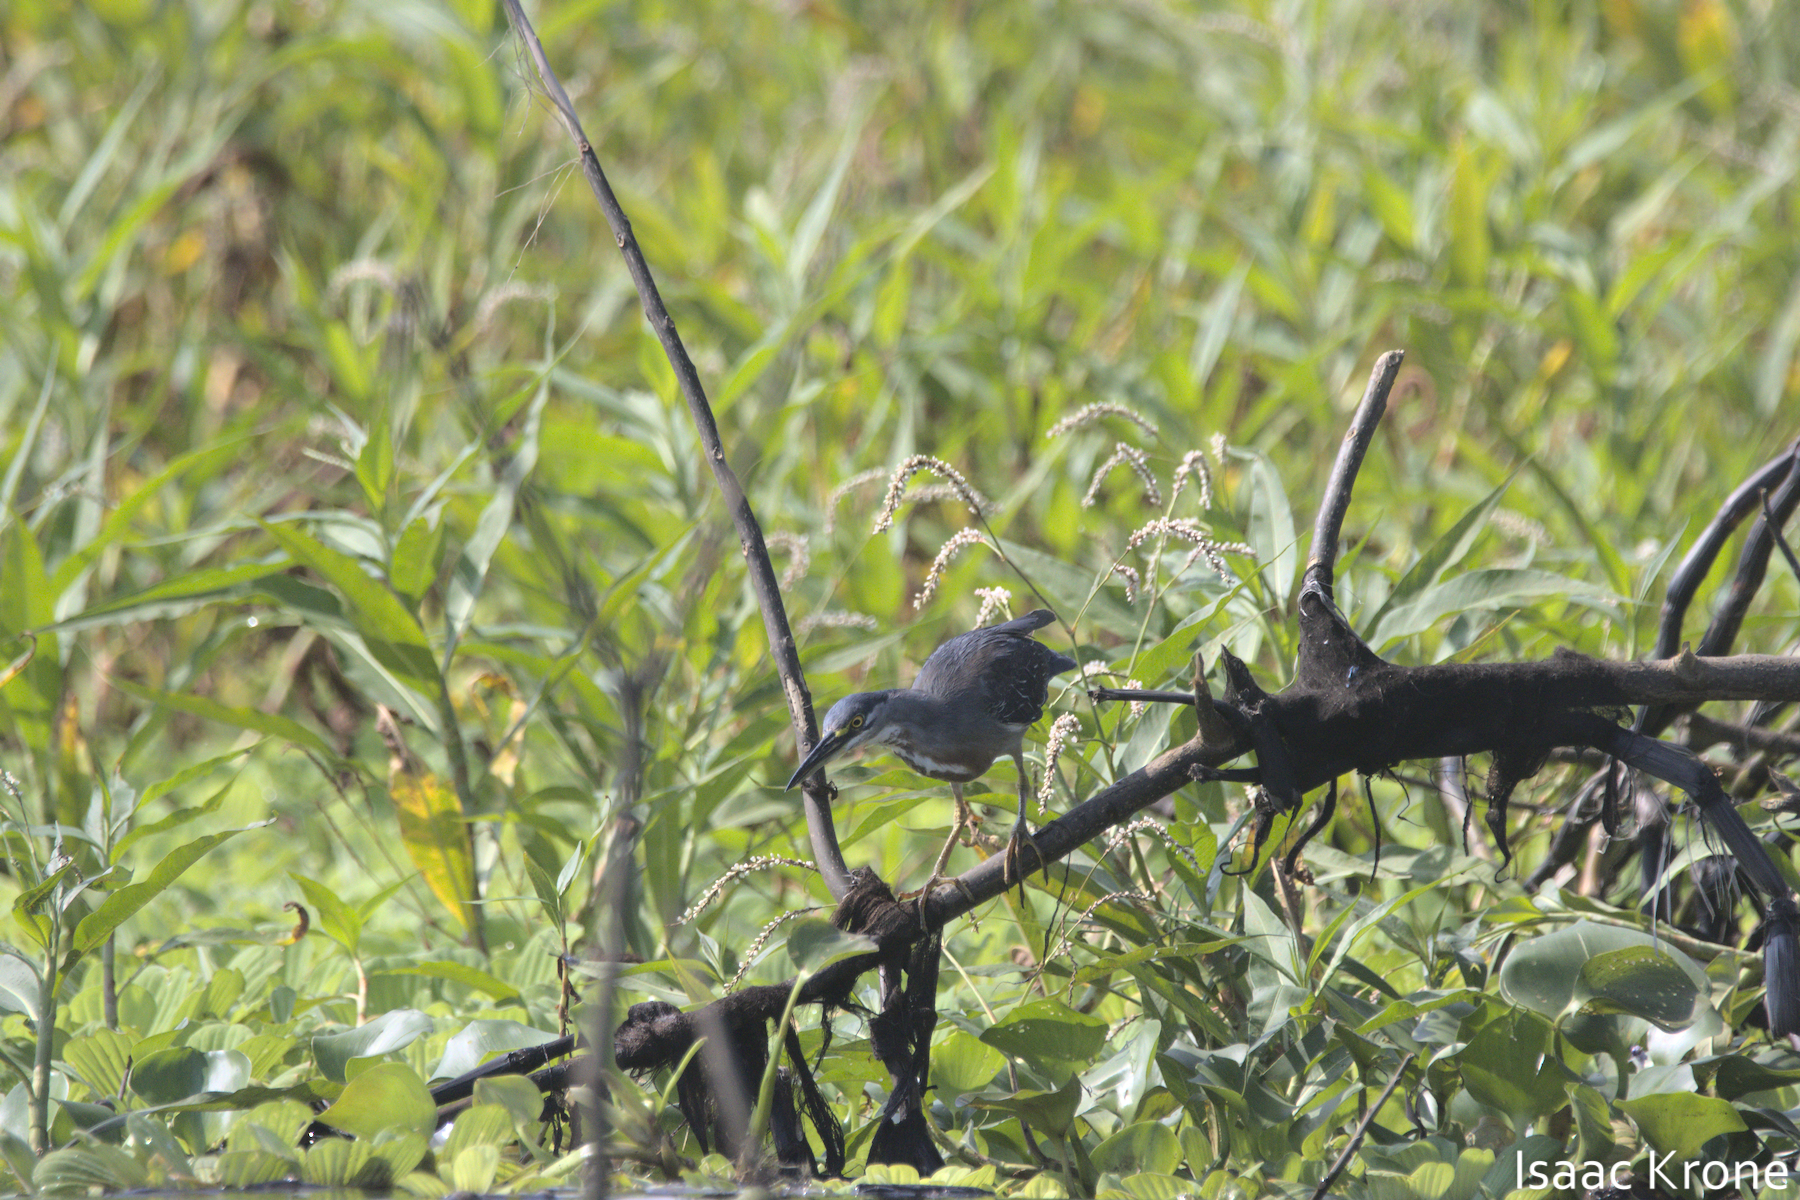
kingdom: Animalia
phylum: Chordata
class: Aves
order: Pelecaniformes
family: Ardeidae
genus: Butorides
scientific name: Butorides striata
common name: Striated heron
